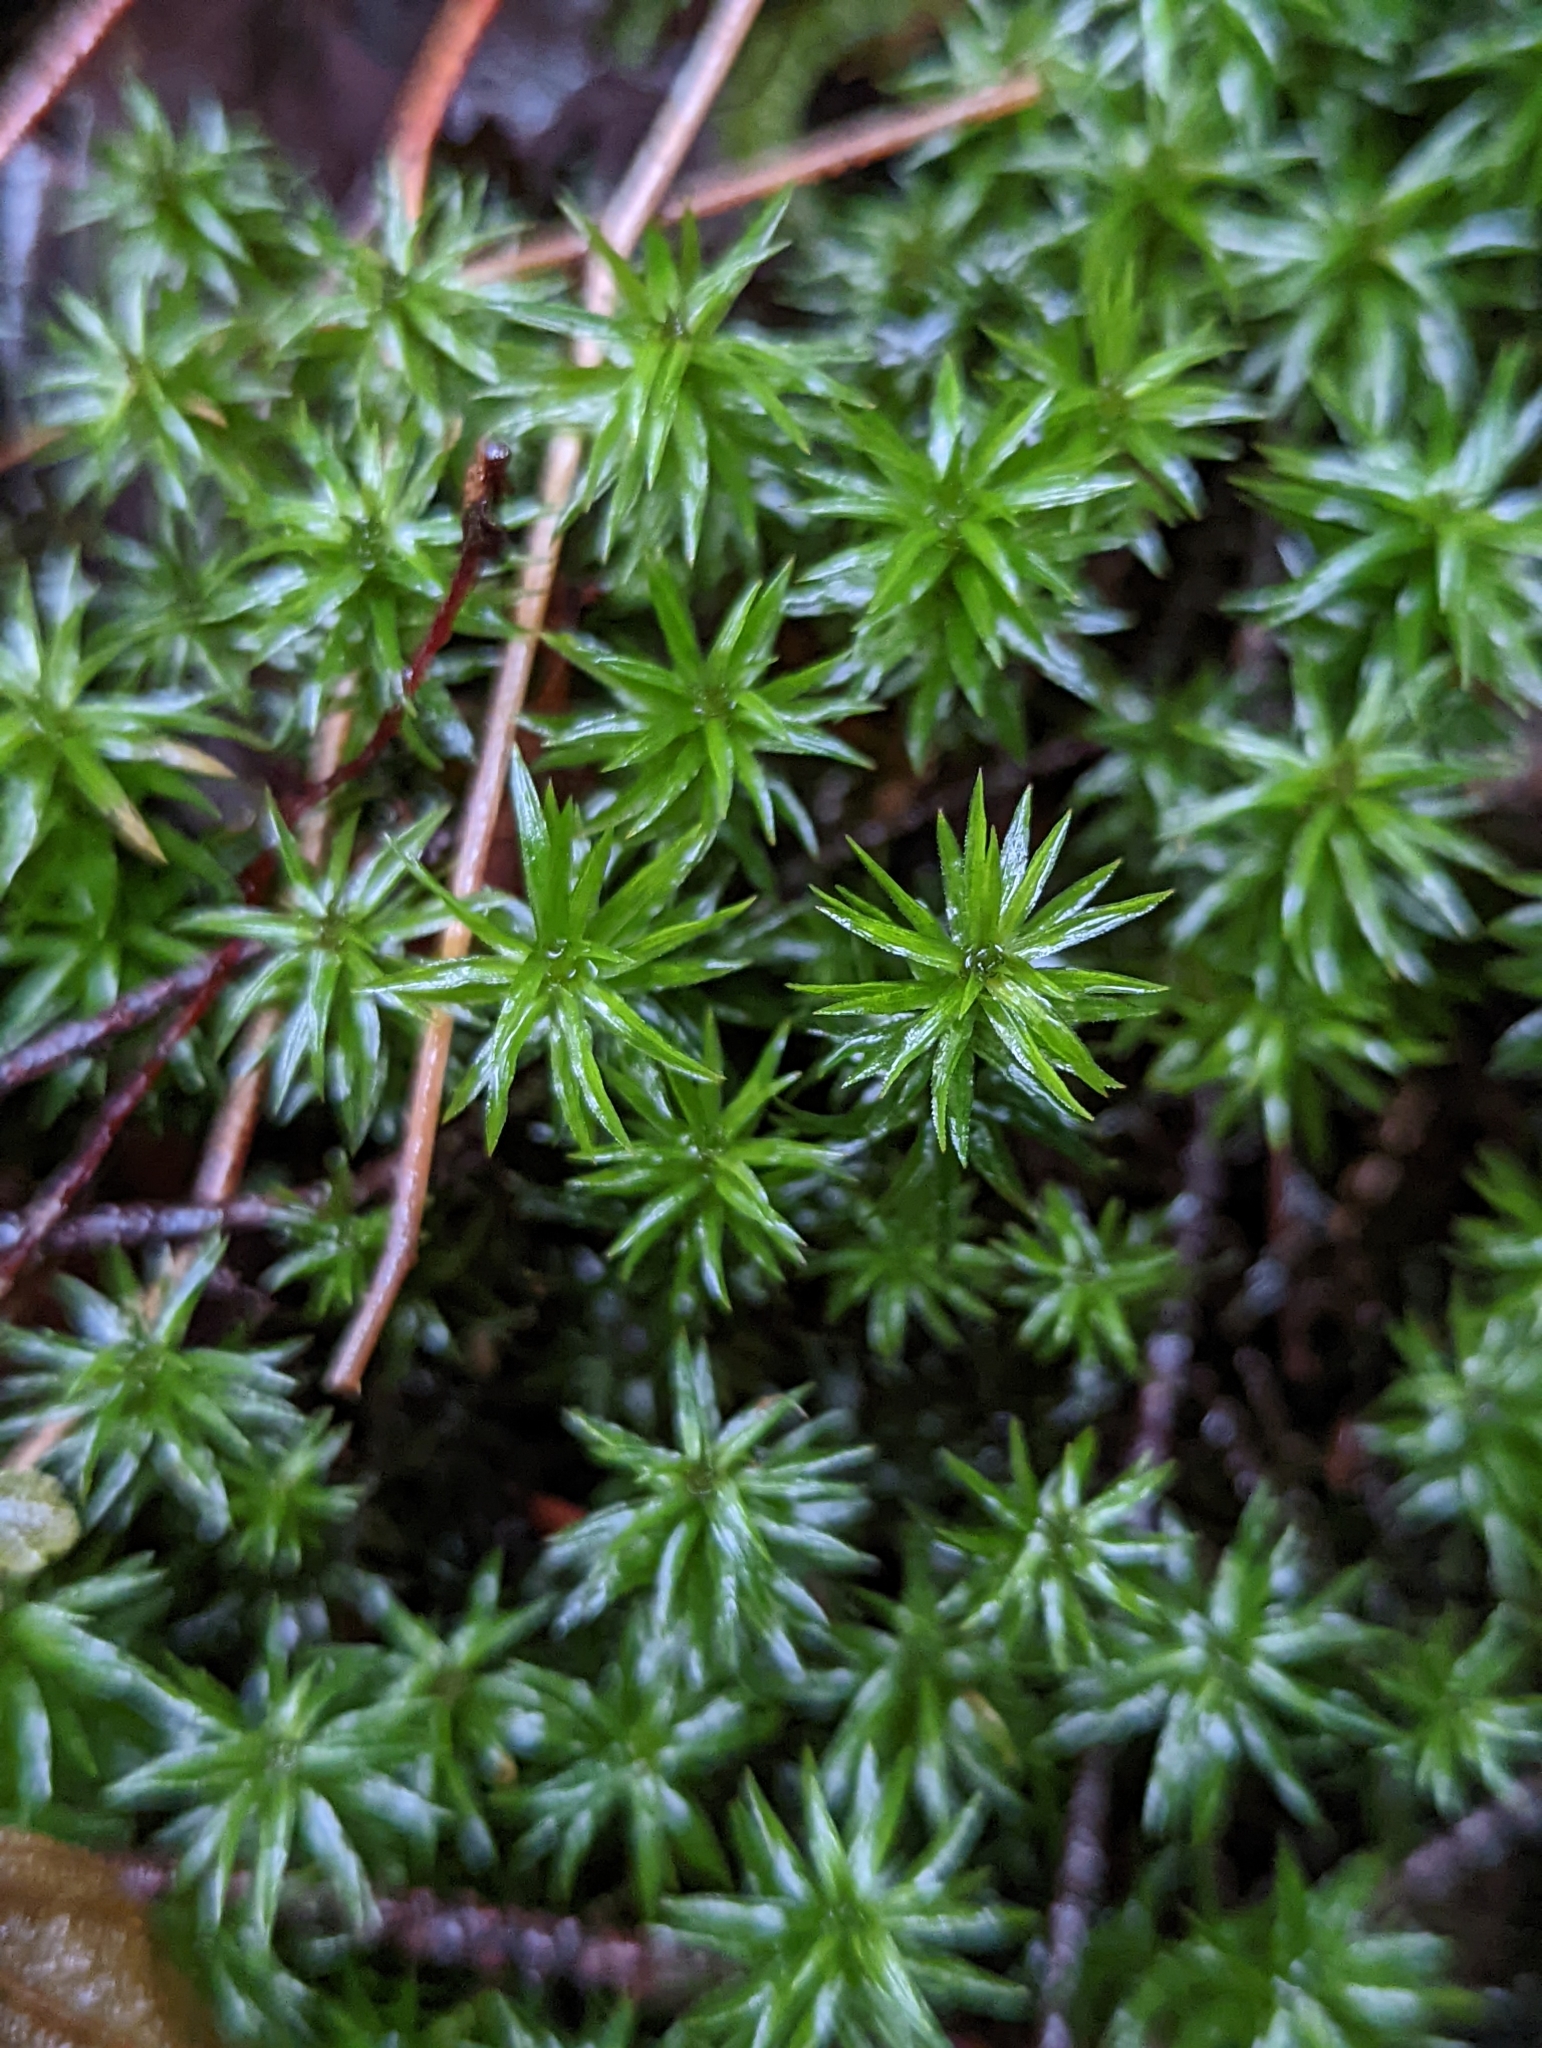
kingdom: Plantae
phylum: Bryophyta
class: Polytrichopsida
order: Polytrichales
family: Polytrichaceae
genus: Pogonatum
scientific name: Pogonatum contortum
